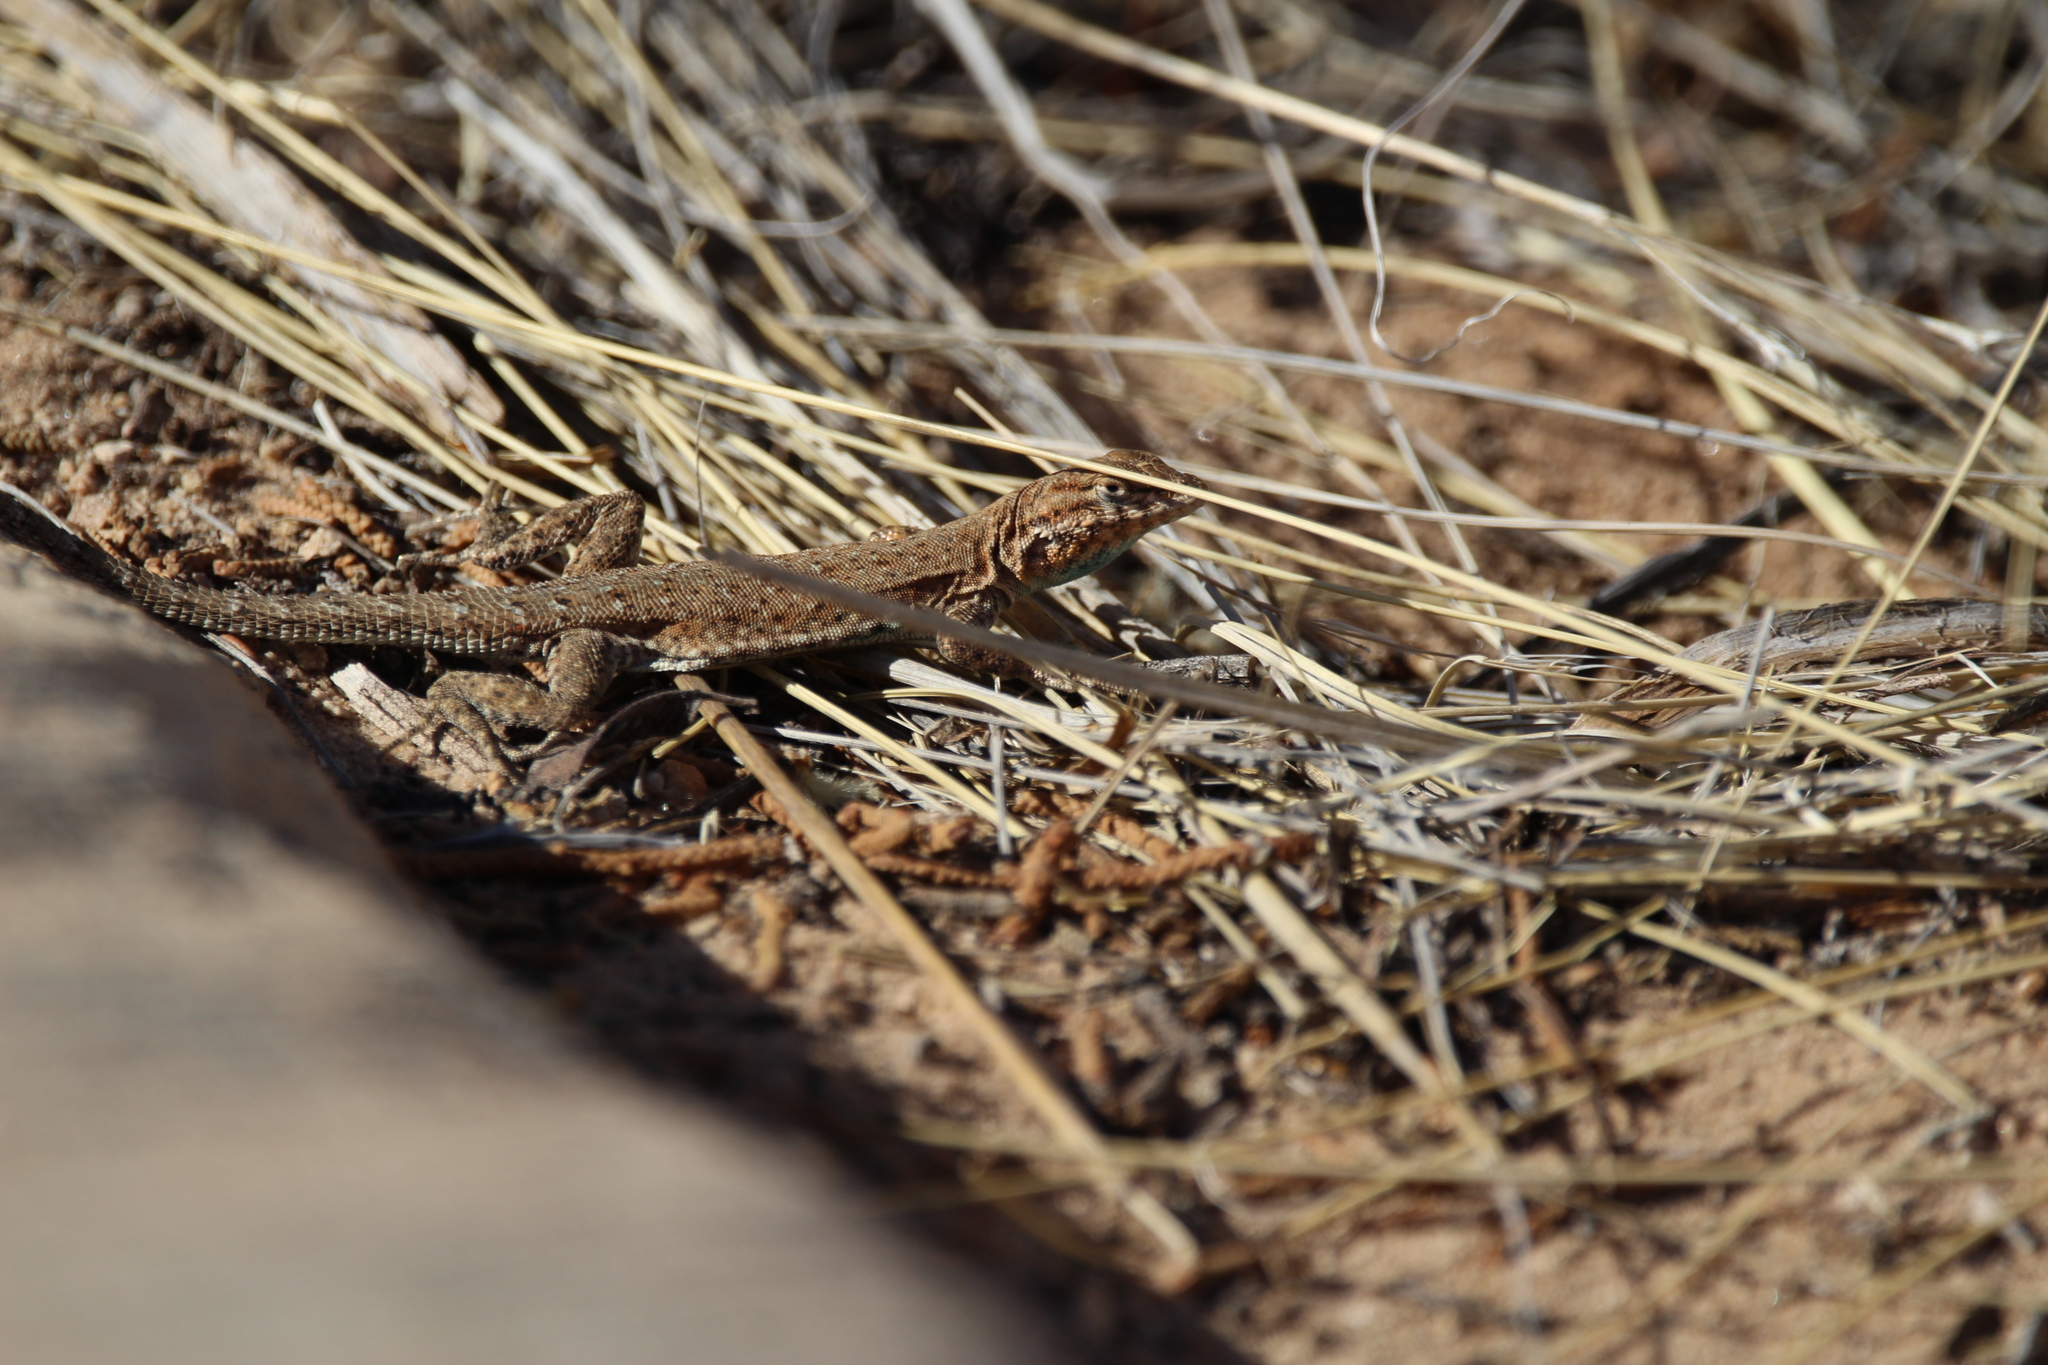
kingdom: Animalia
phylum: Chordata
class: Squamata
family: Phrynosomatidae
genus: Uta
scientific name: Uta stansburiana
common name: Side-blotched lizard
